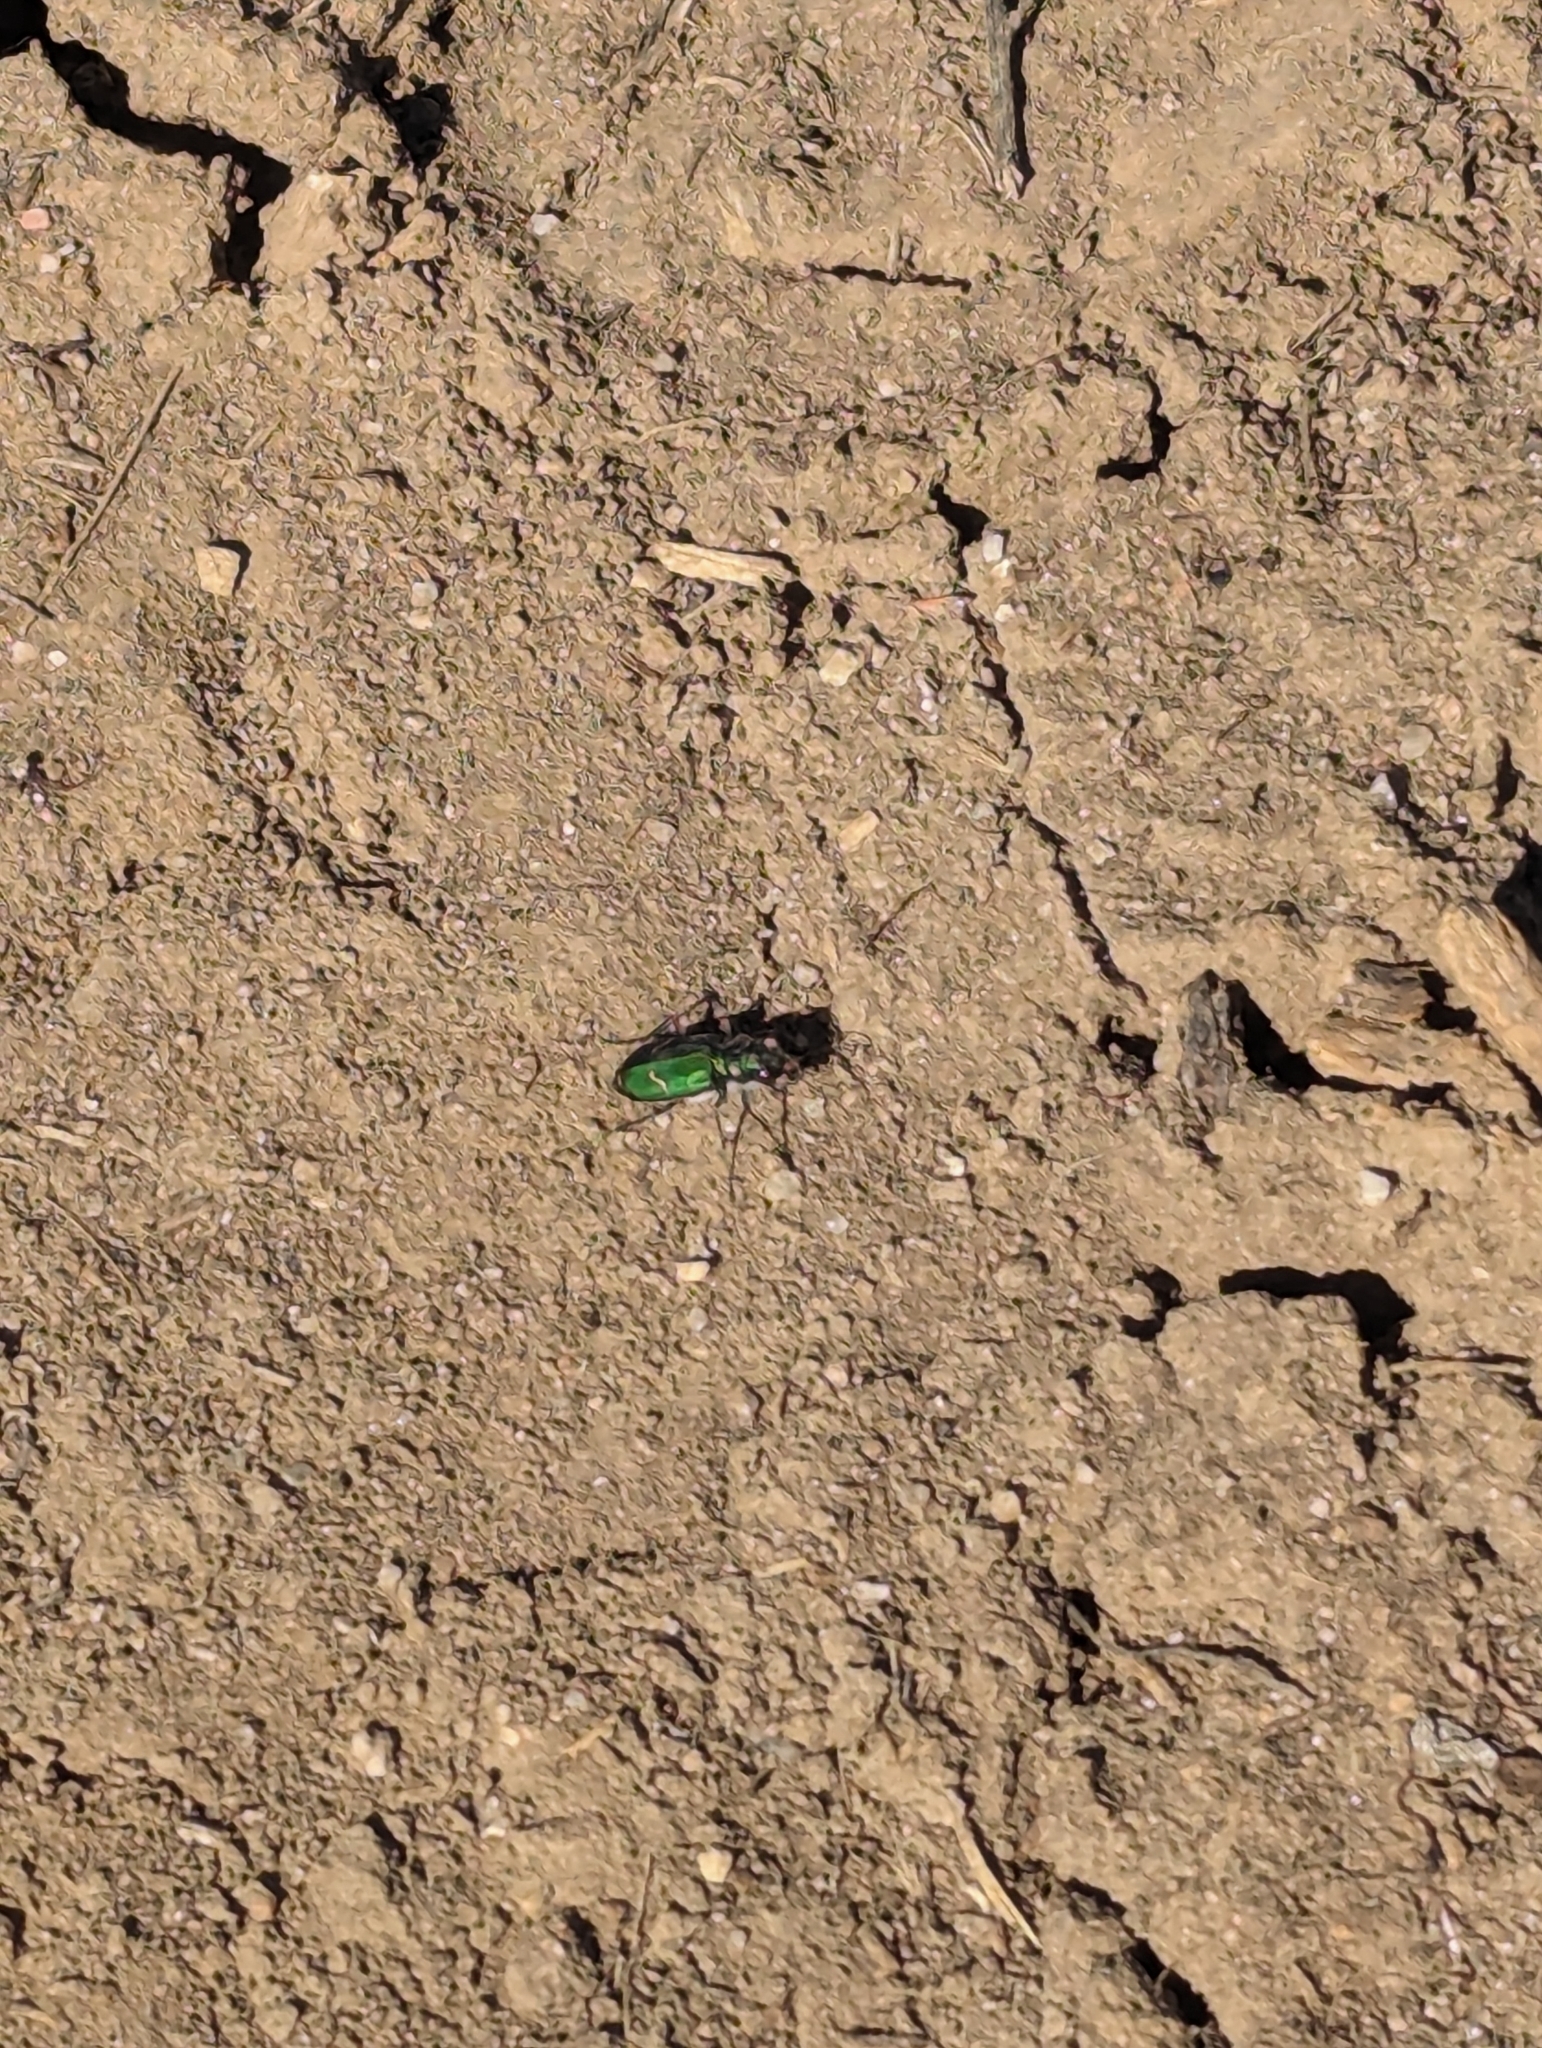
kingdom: Animalia
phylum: Arthropoda
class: Insecta
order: Coleoptera
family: Carabidae
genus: Cicindela
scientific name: Cicindela purpurea
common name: Cow path tiger beetle
